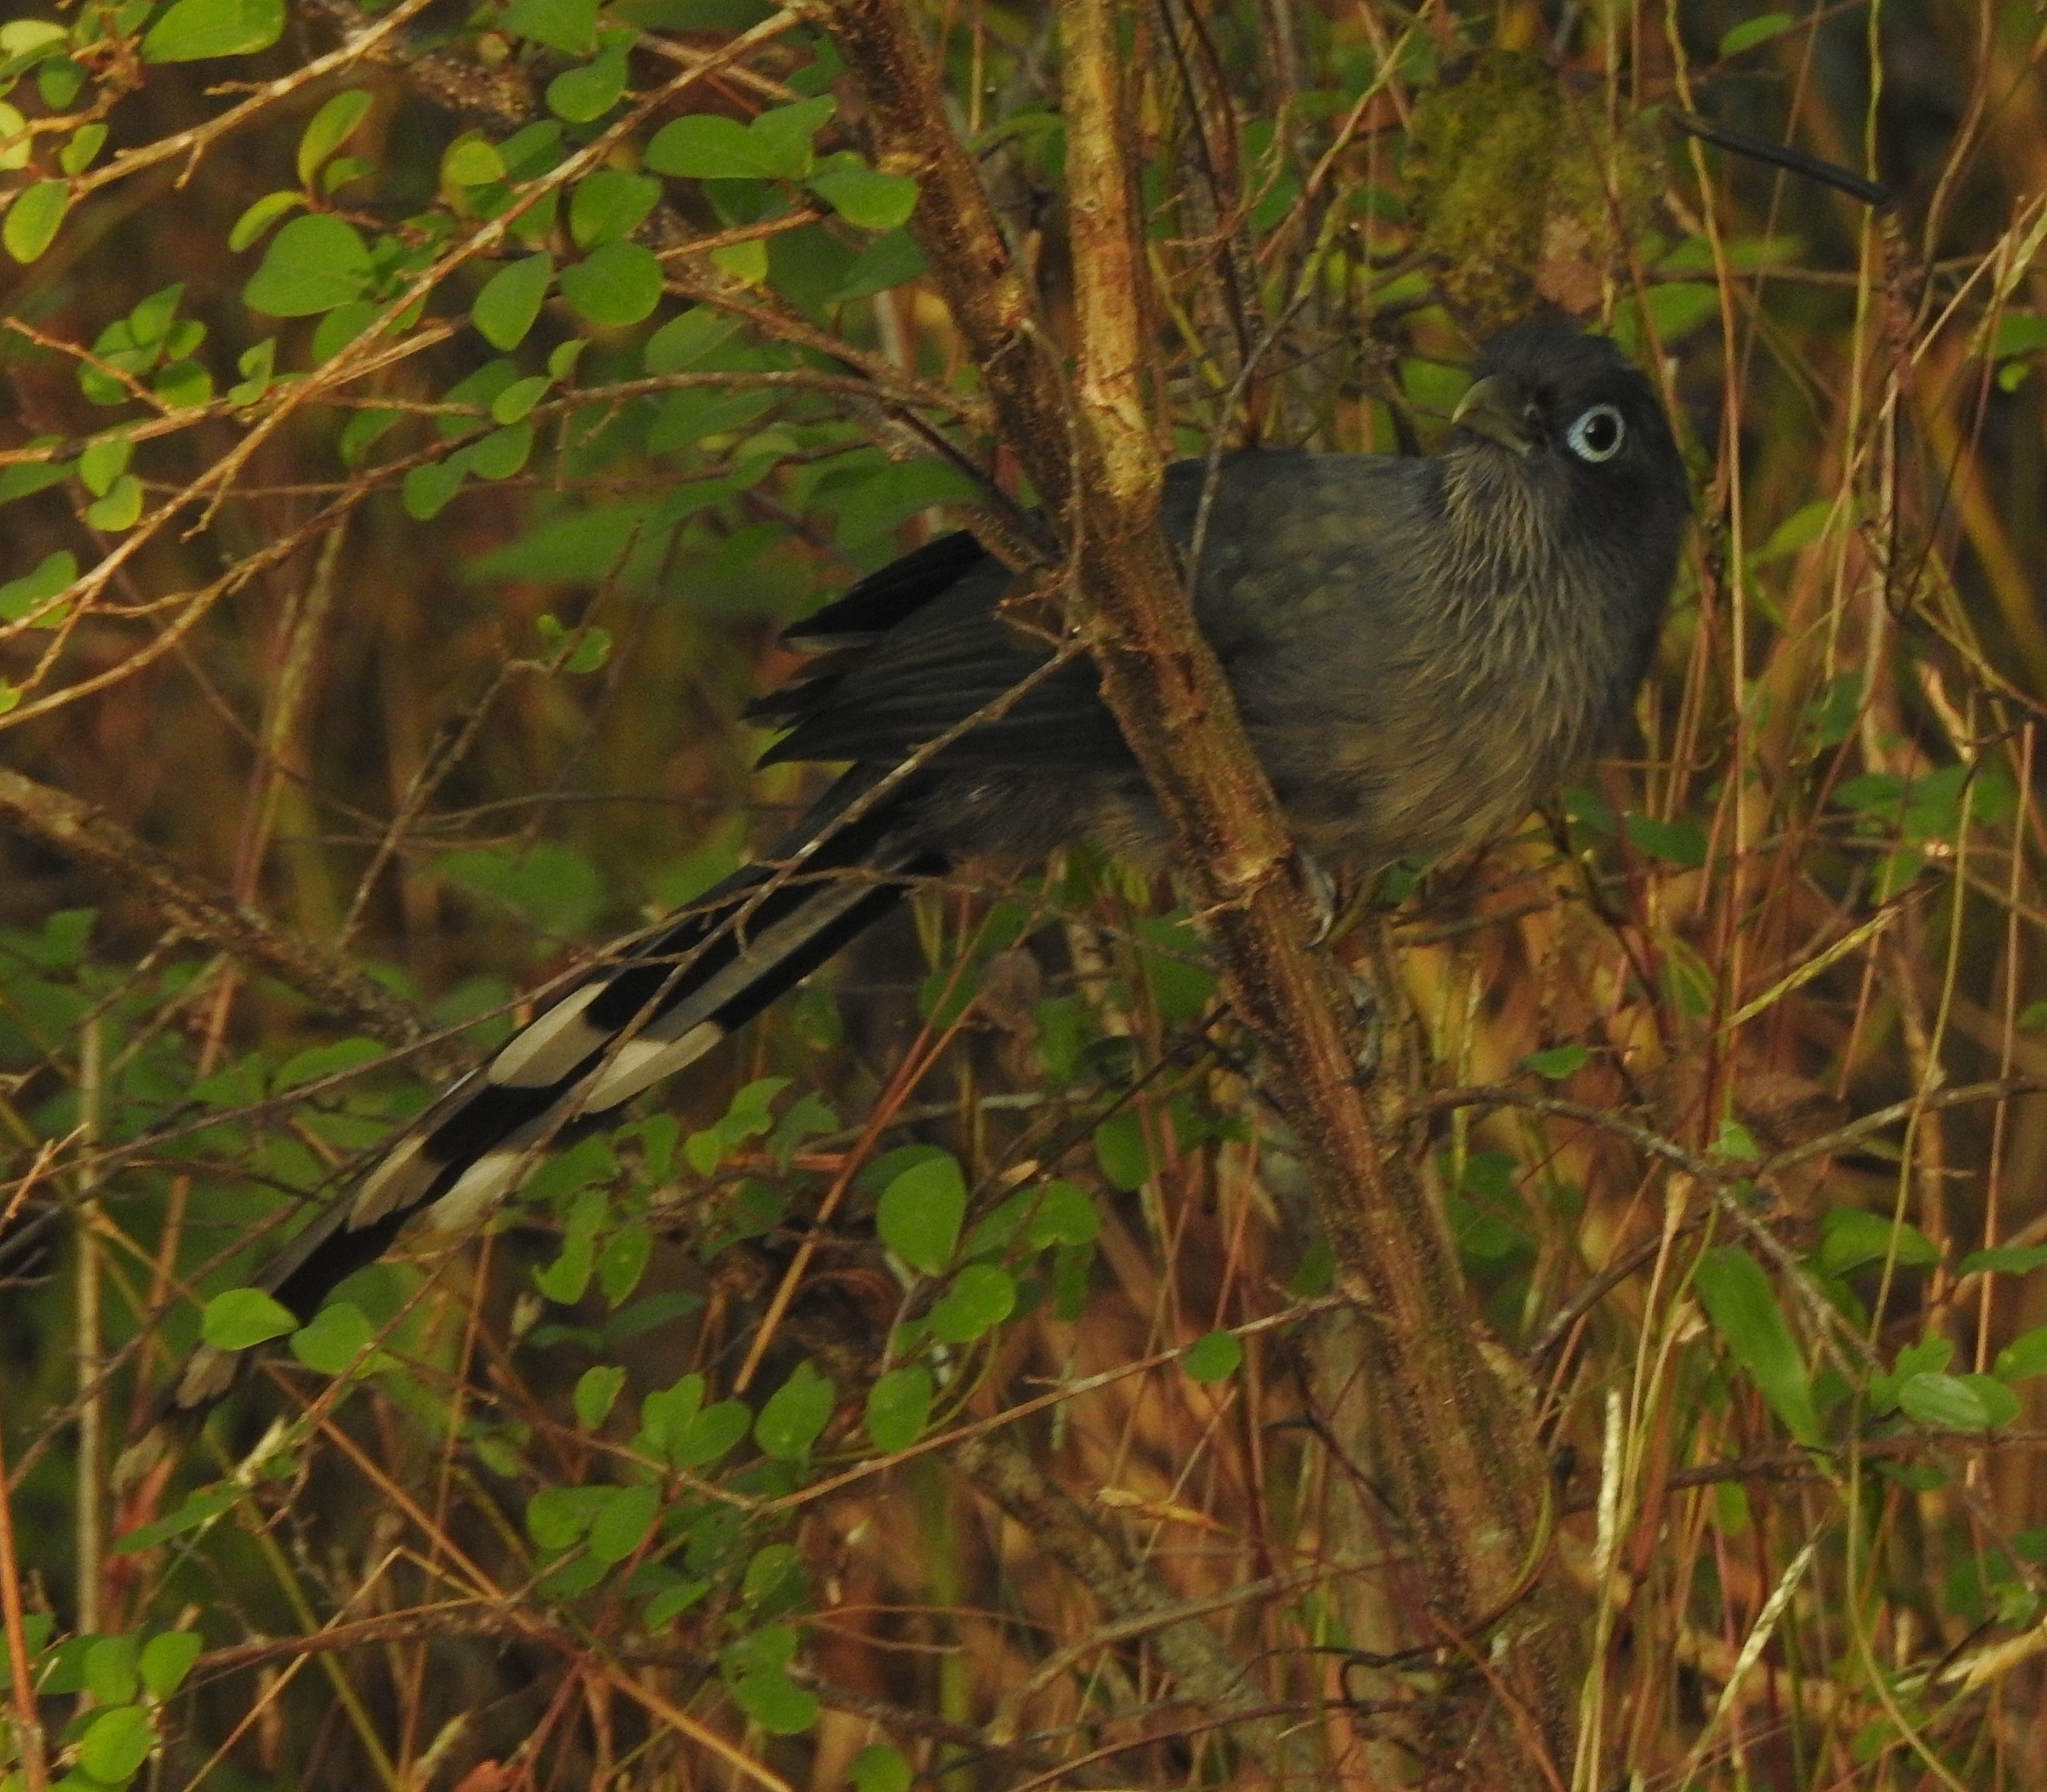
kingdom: Animalia
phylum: Chordata
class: Aves
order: Cuculiformes
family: Cuculidae
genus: Rhopodytes
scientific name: Rhopodytes viridirostris
